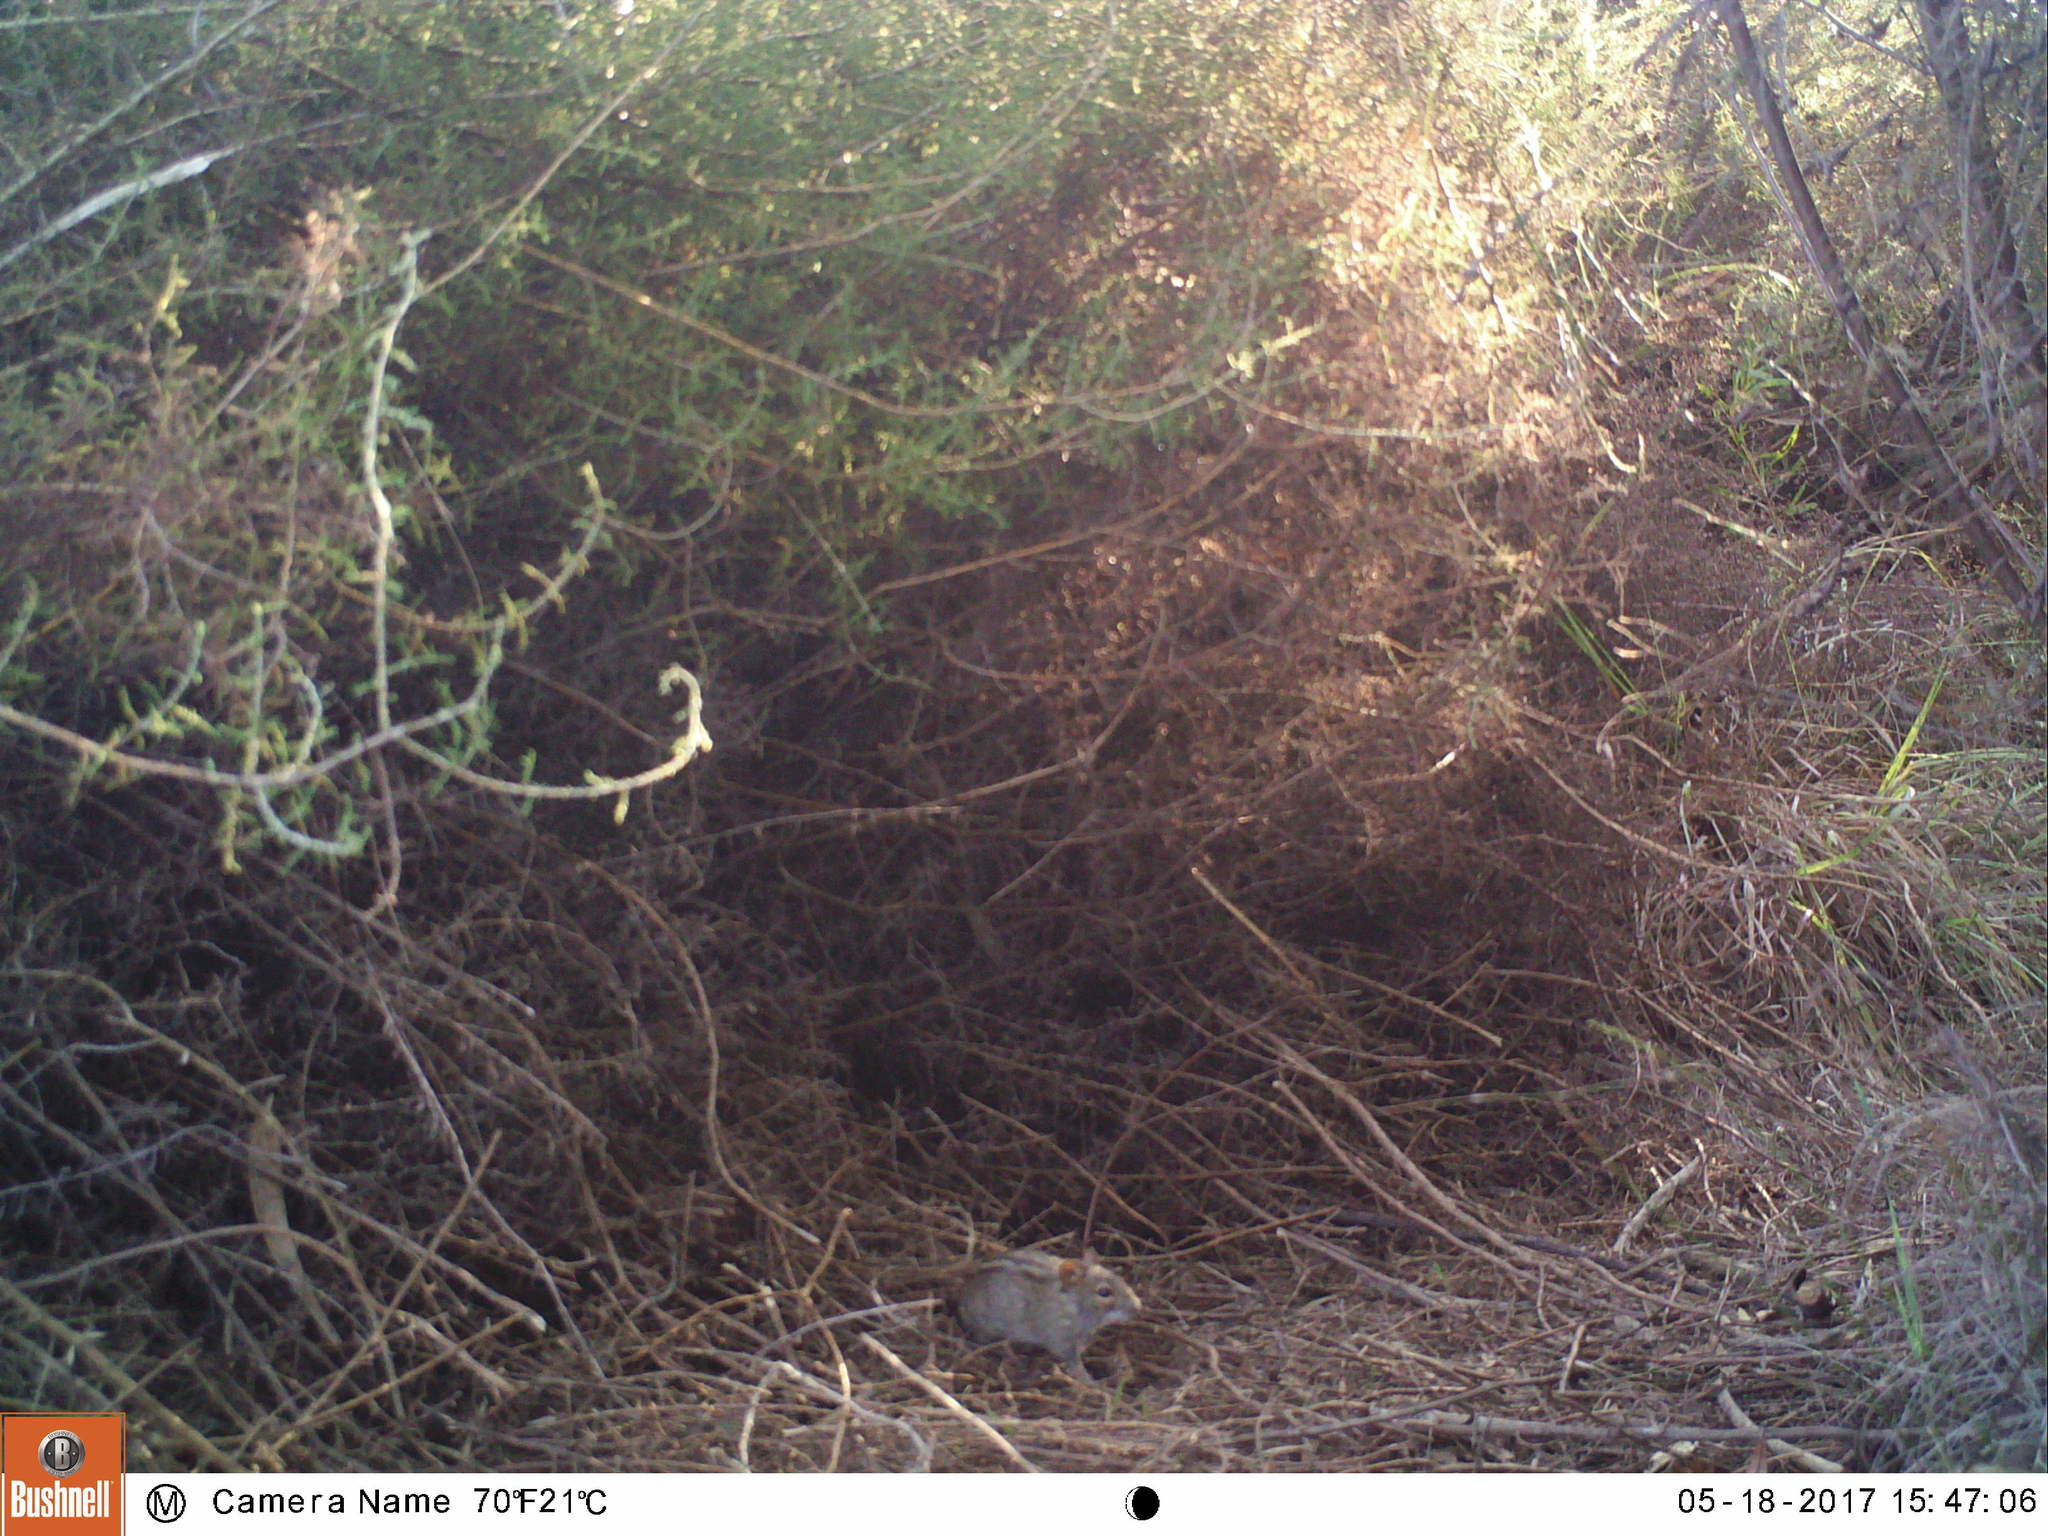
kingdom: Animalia
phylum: Chordata
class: Mammalia
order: Rodentia
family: Muridae
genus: Rhabdomys
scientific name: Rhabdomys pumilio
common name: Xeric four-striped grass rat
